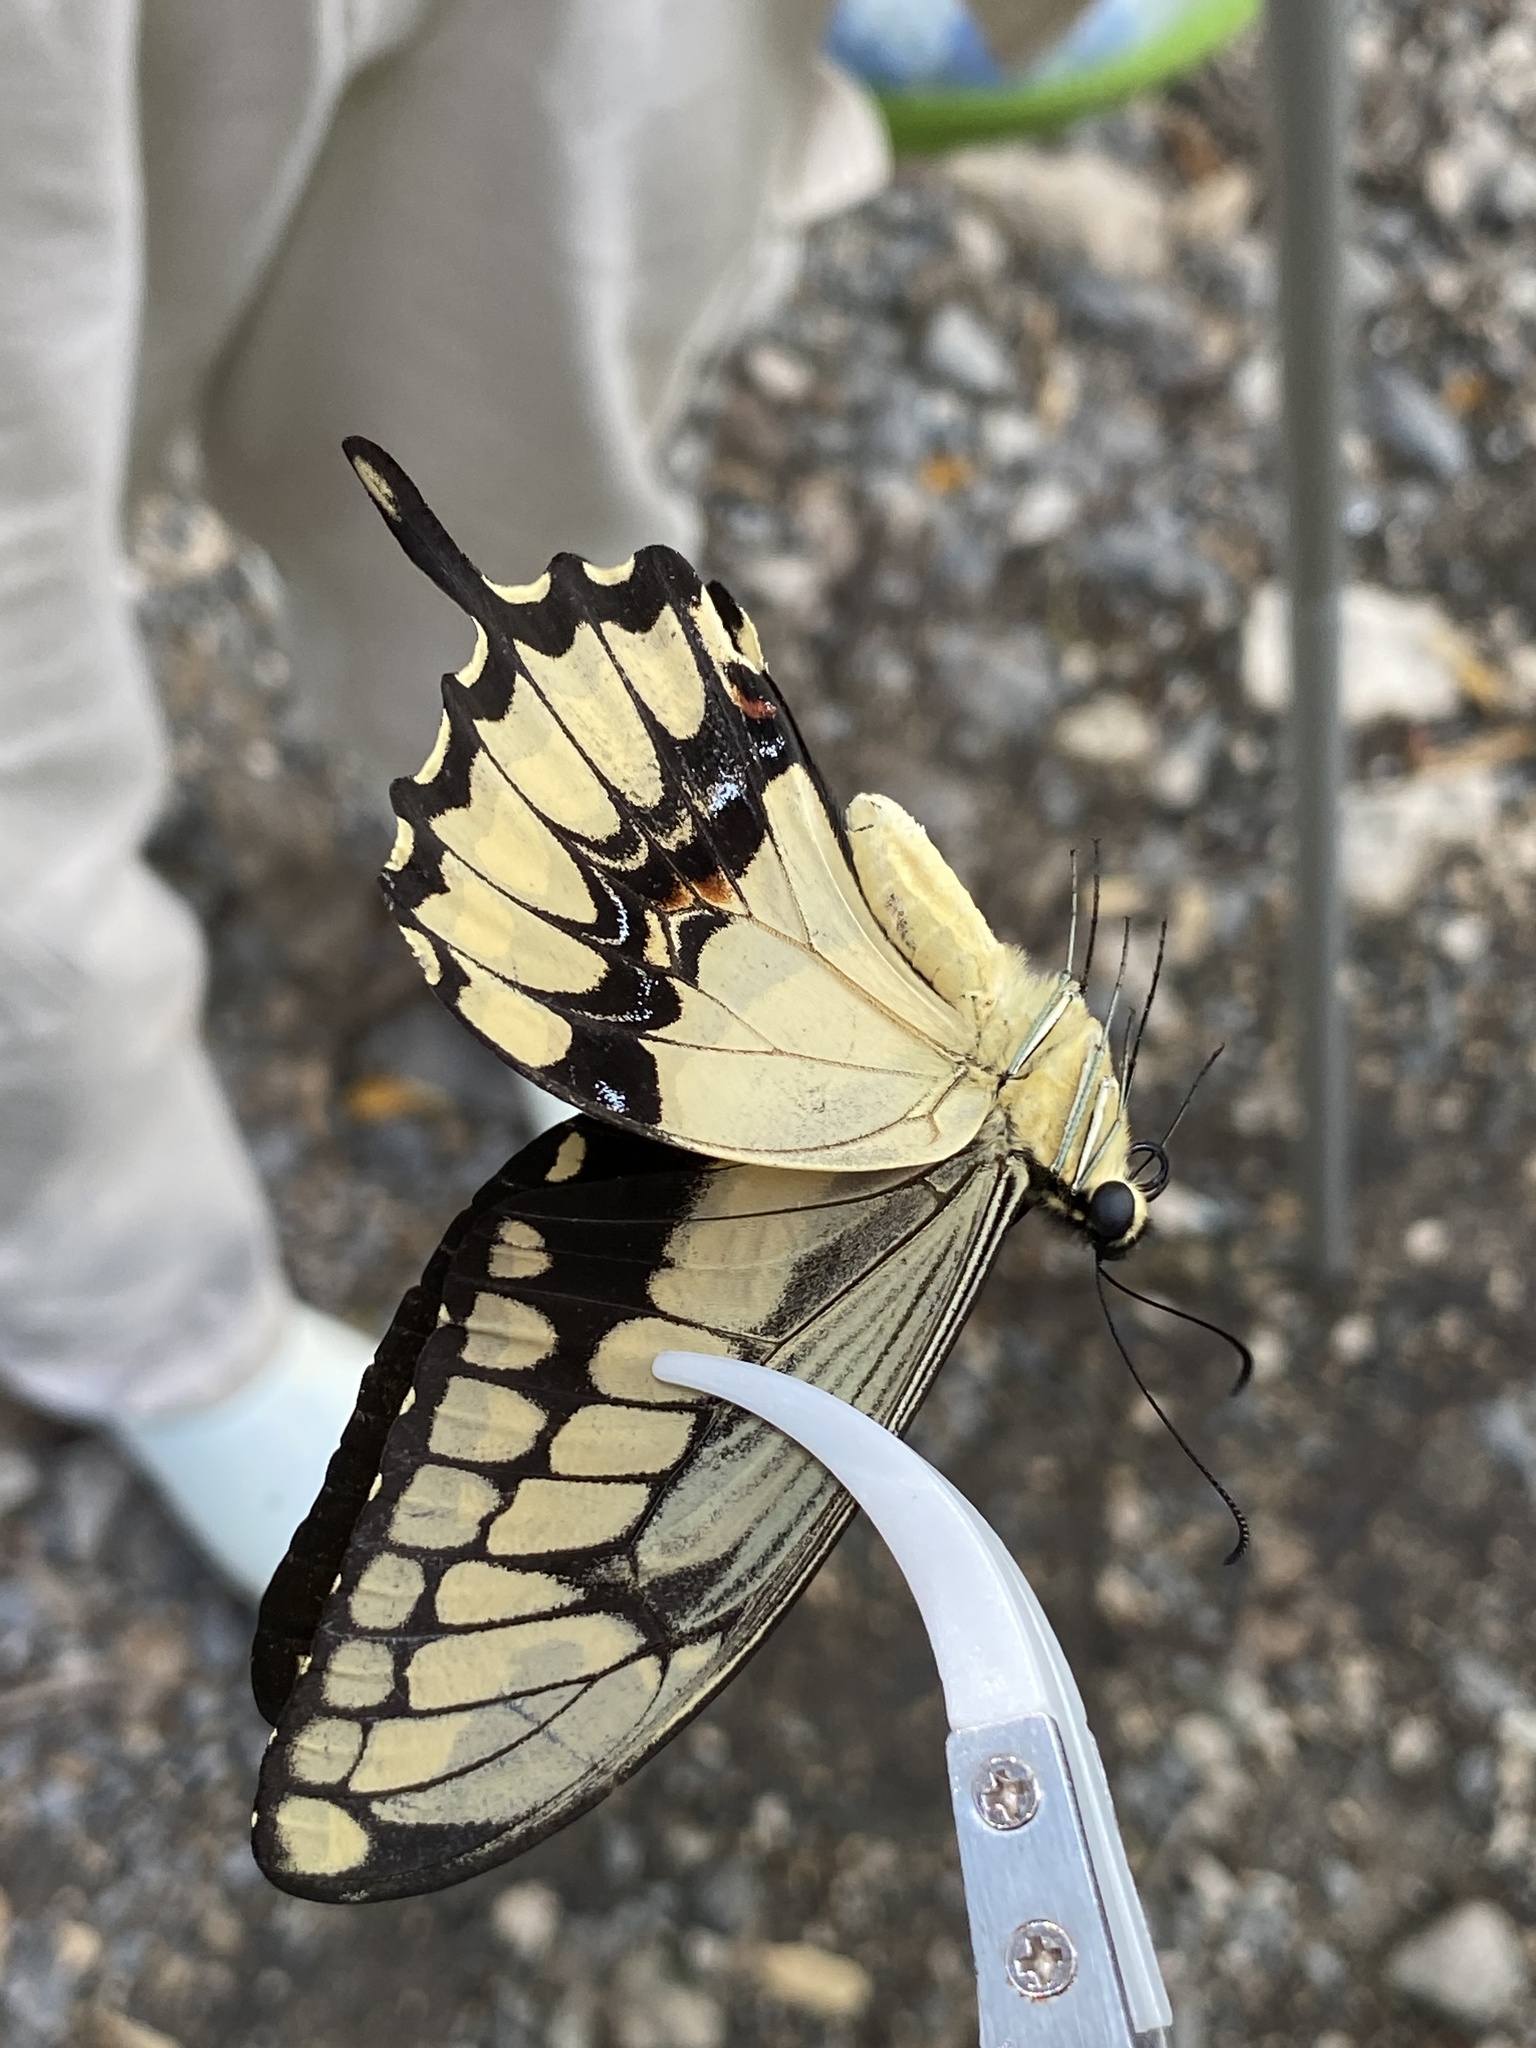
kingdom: Animalia
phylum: Arthropoda
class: Insecta
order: Lepidoptera
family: Papilionidae
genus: Papilio
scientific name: Papilio thoas
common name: King swallowtail
